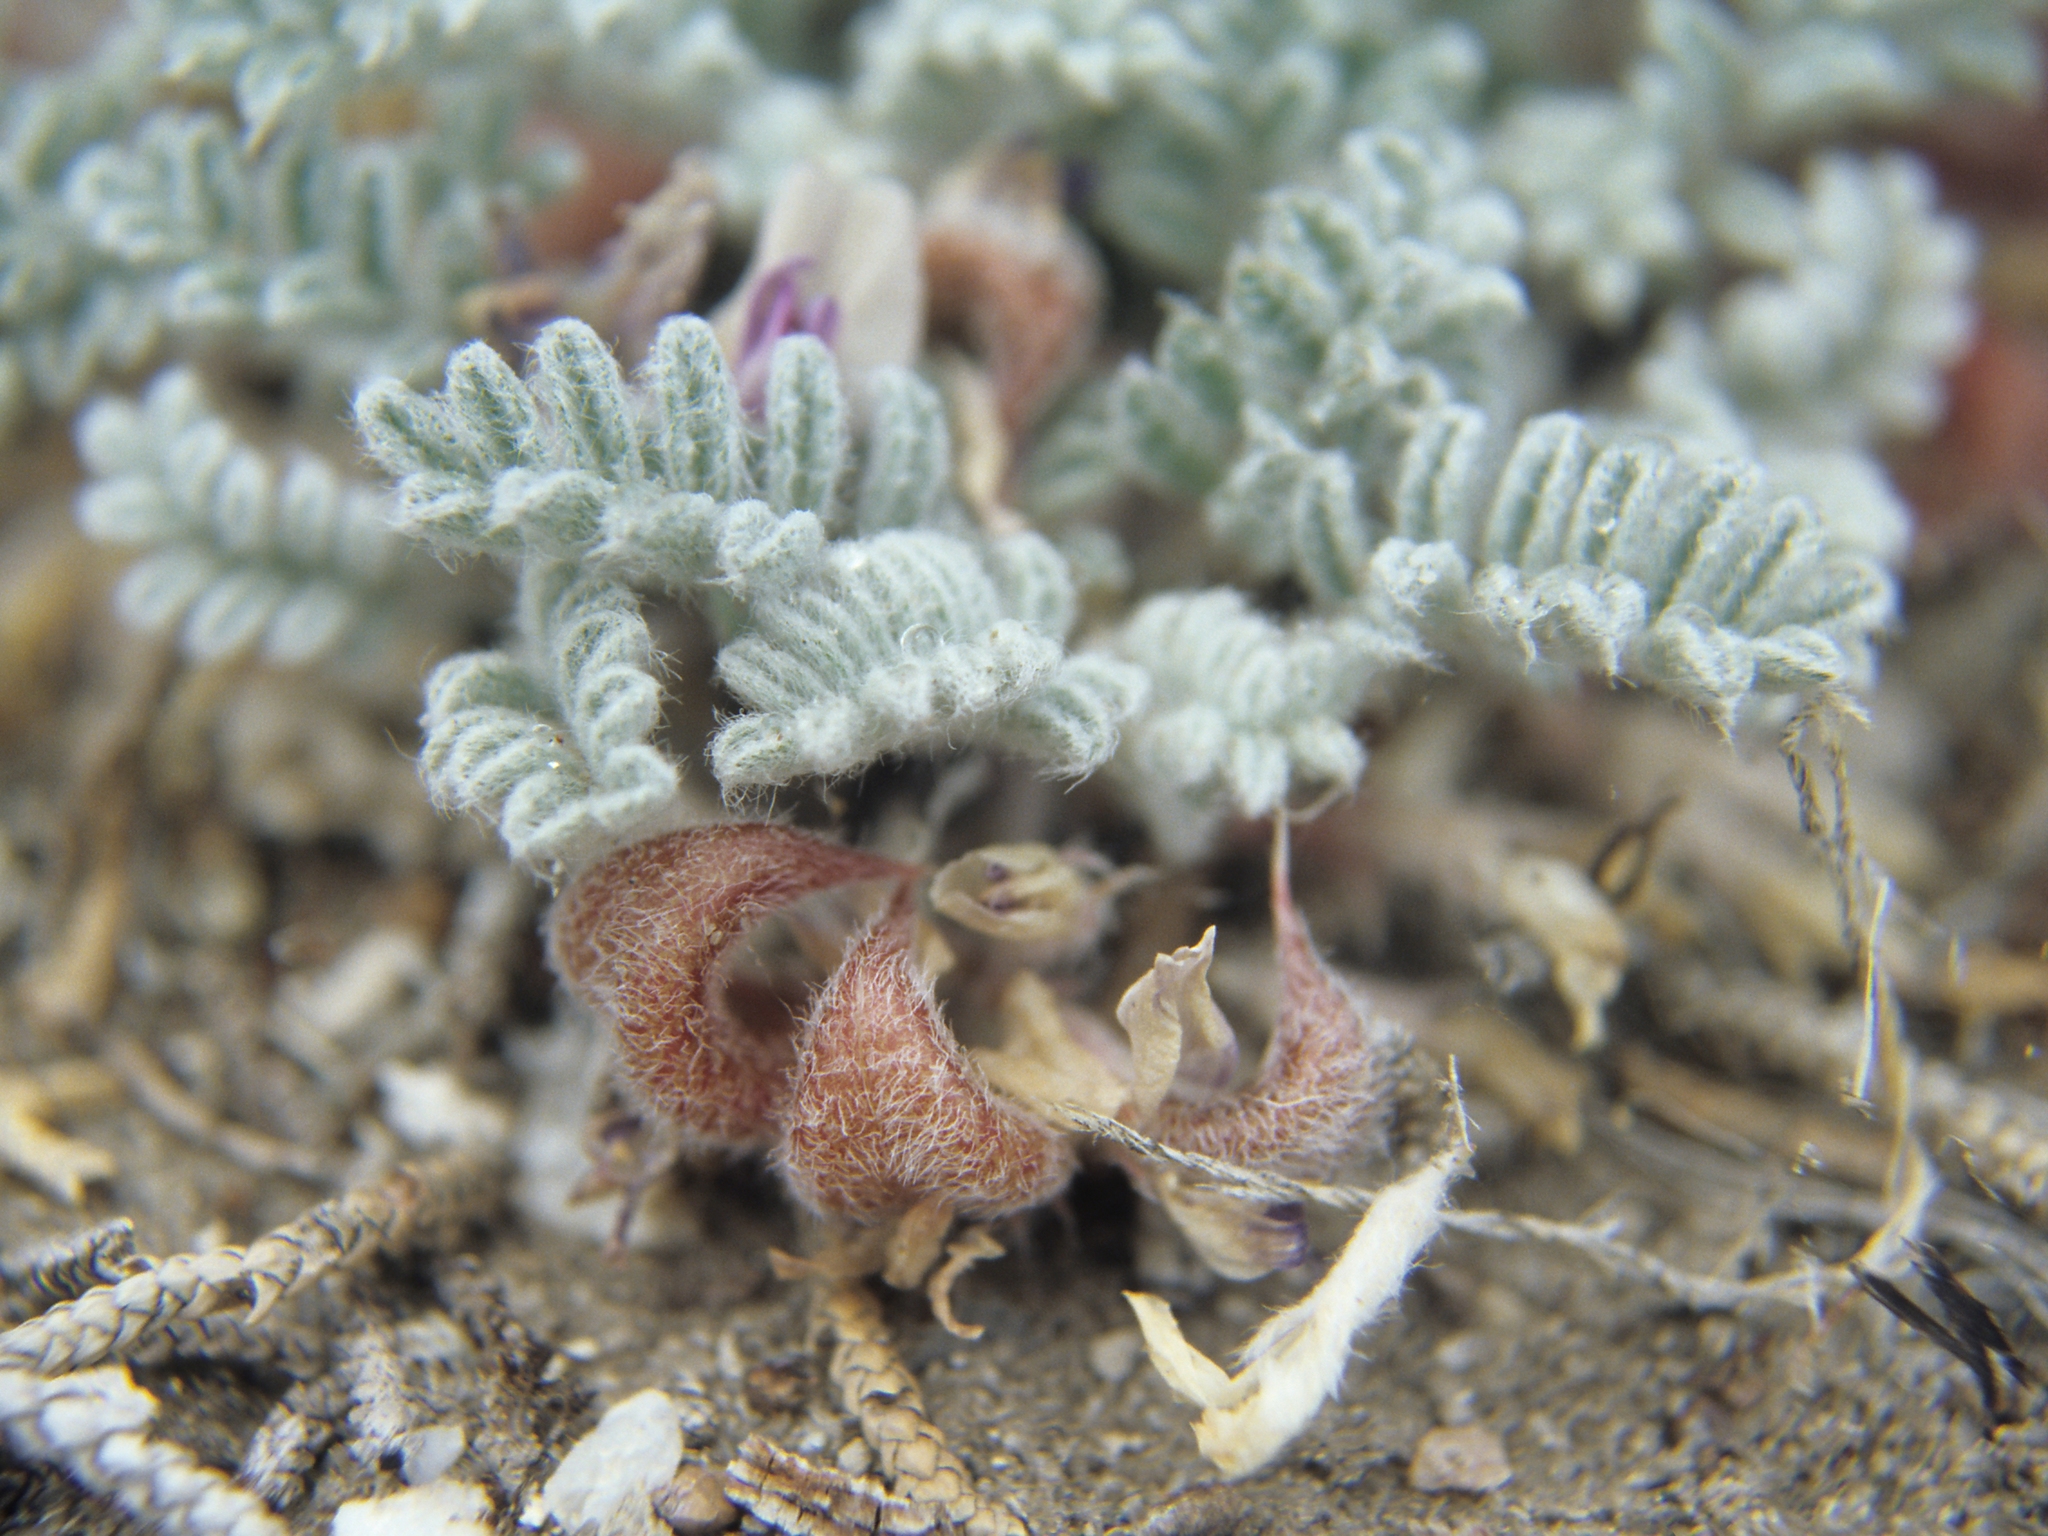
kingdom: Plantae
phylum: Tracheophyta
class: Magnoliopsida
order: Fabales
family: Fabaceae
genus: Astragalus
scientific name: Astragalus anserinus
